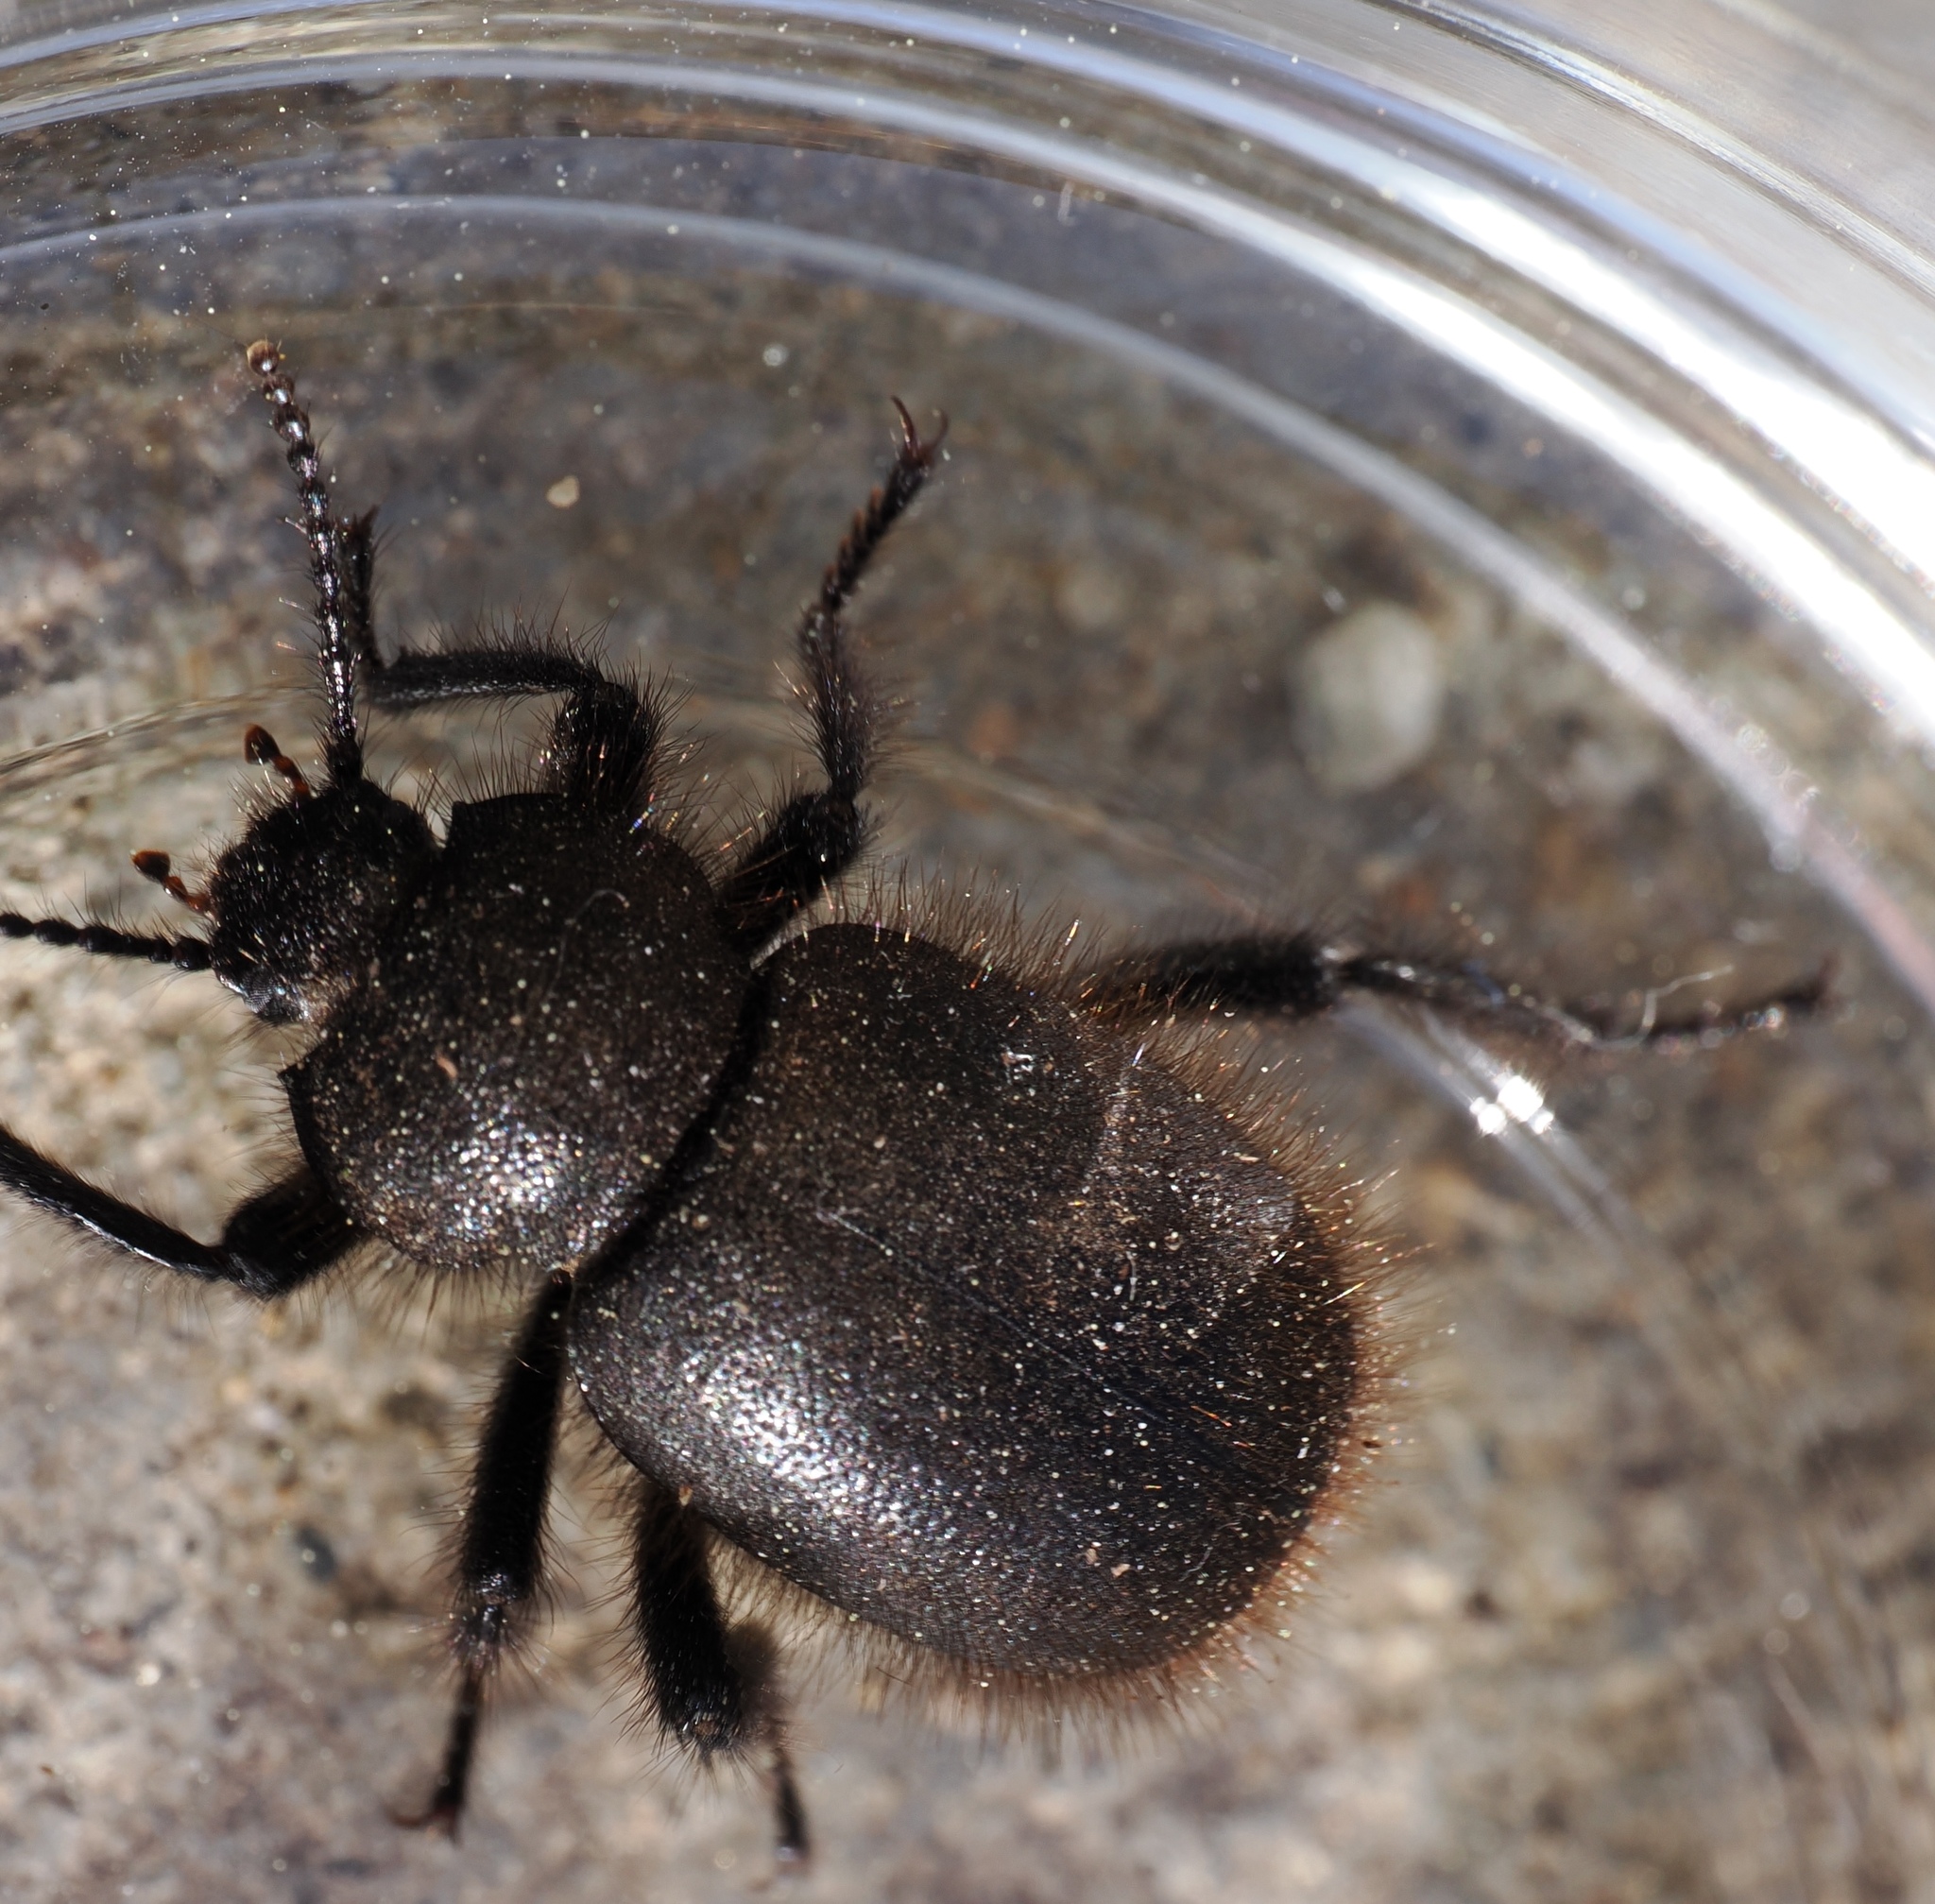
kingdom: Animalia
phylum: Arthropoda
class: Insecta
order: Coleoptera
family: Tenebrionidae
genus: Eleodes
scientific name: Eleodes osculans
